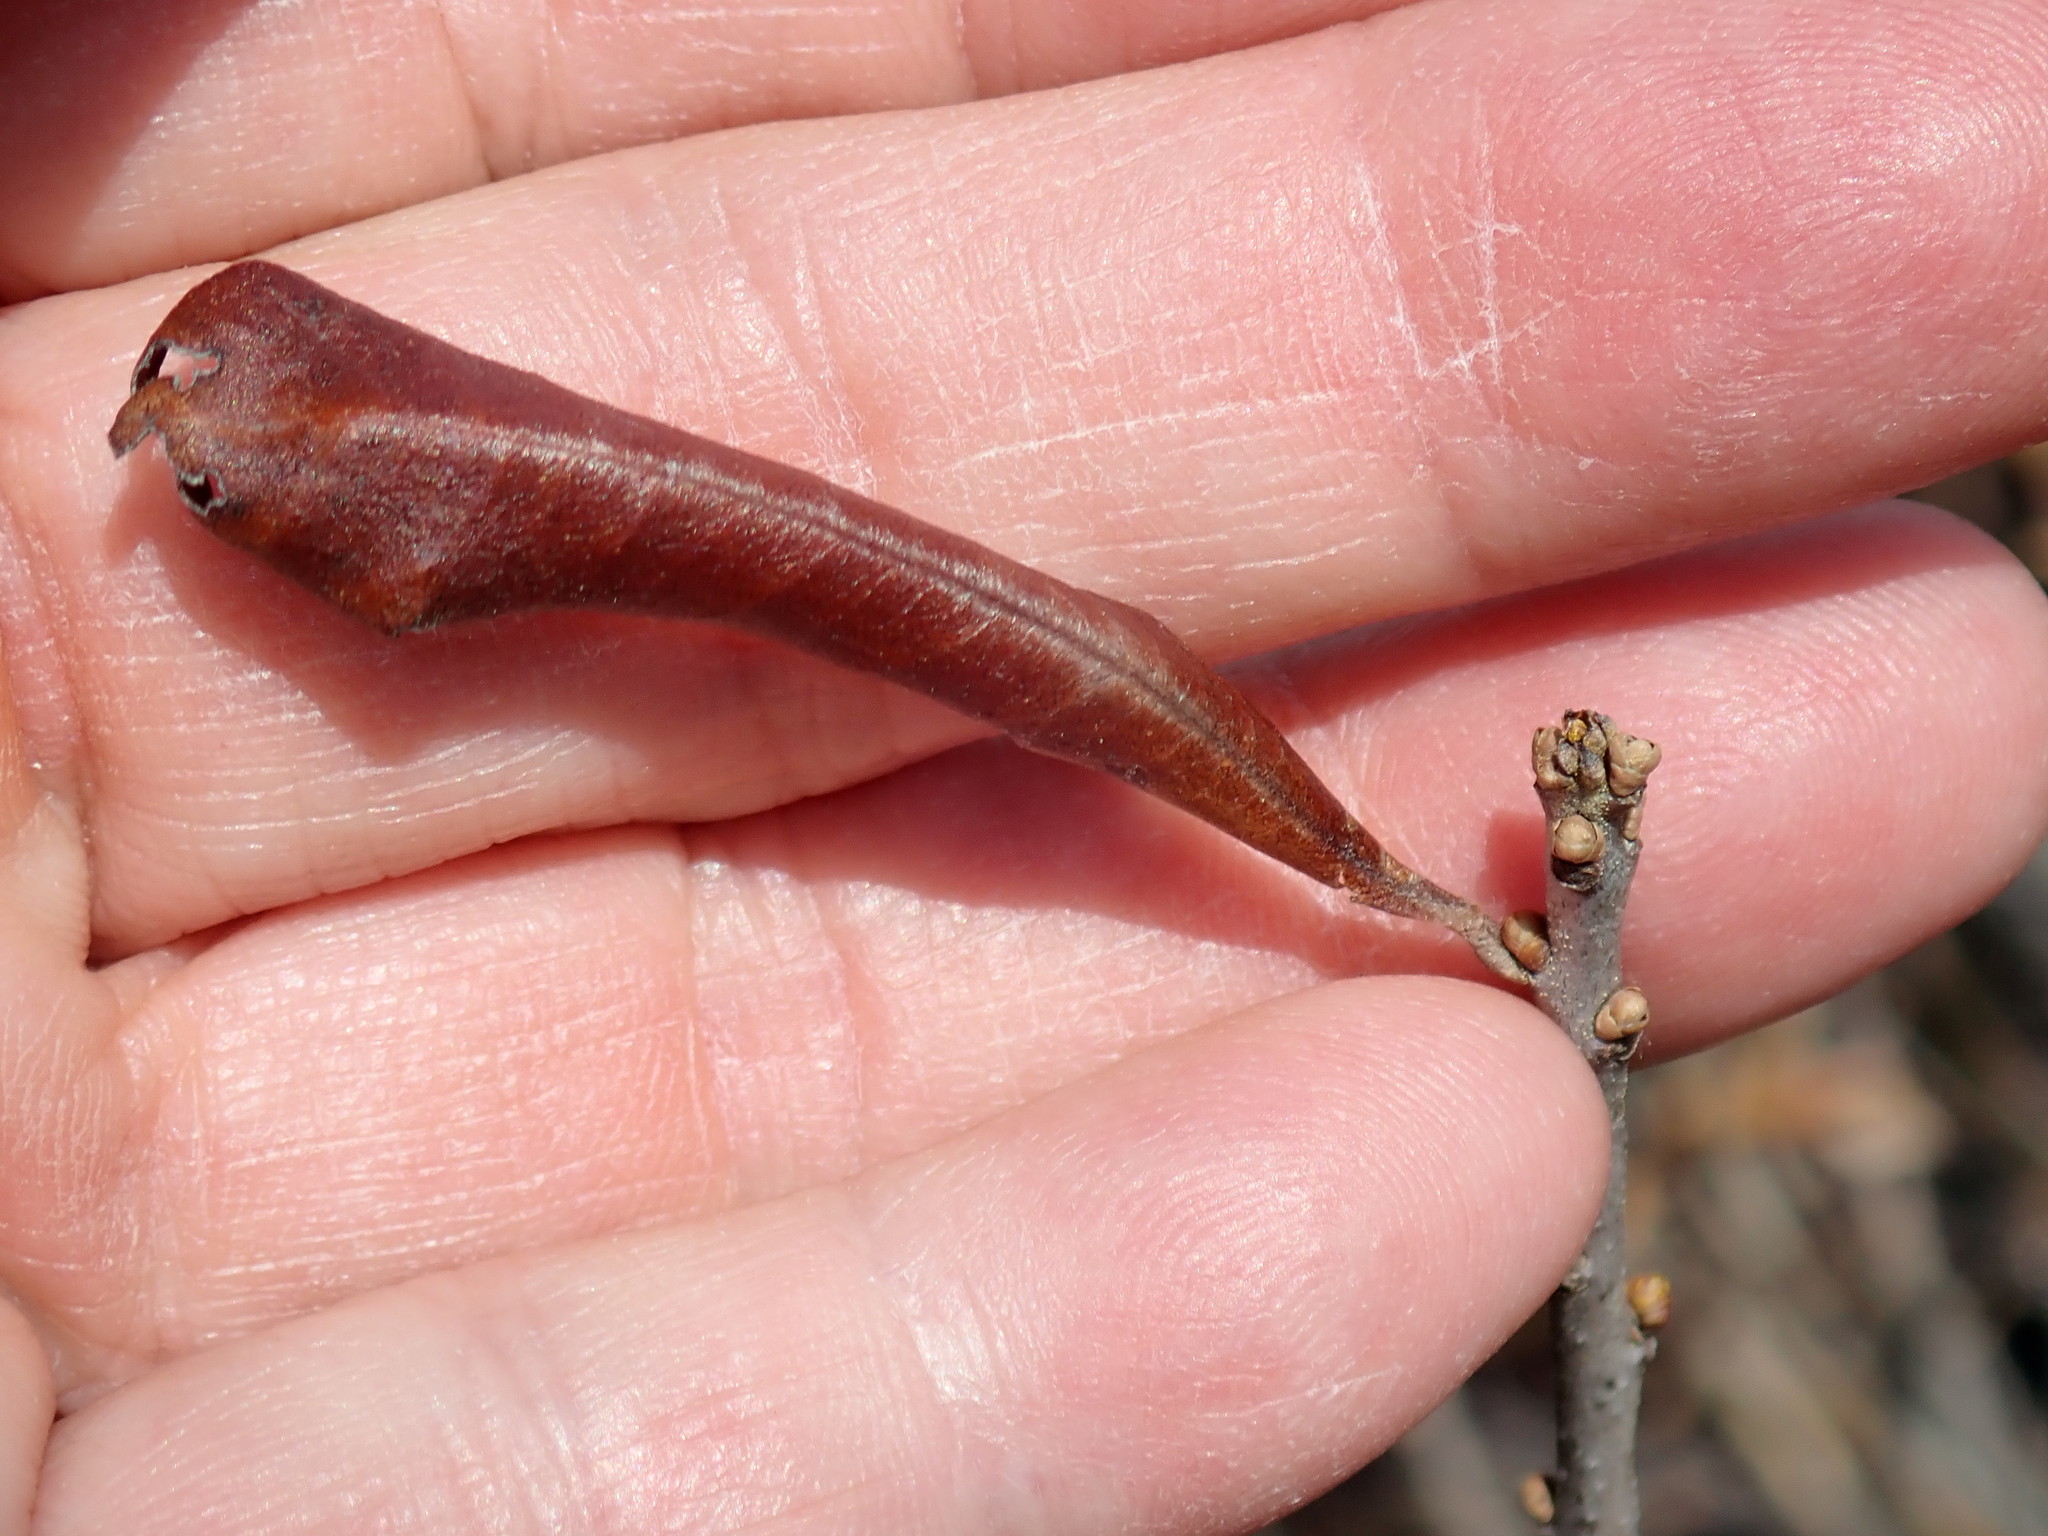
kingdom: Plantae
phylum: Tracheophyta
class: Magnoliopsida
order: Fagales
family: Myricaceae
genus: Morella
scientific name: Morella pensylvanica
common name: Northern bayberry
